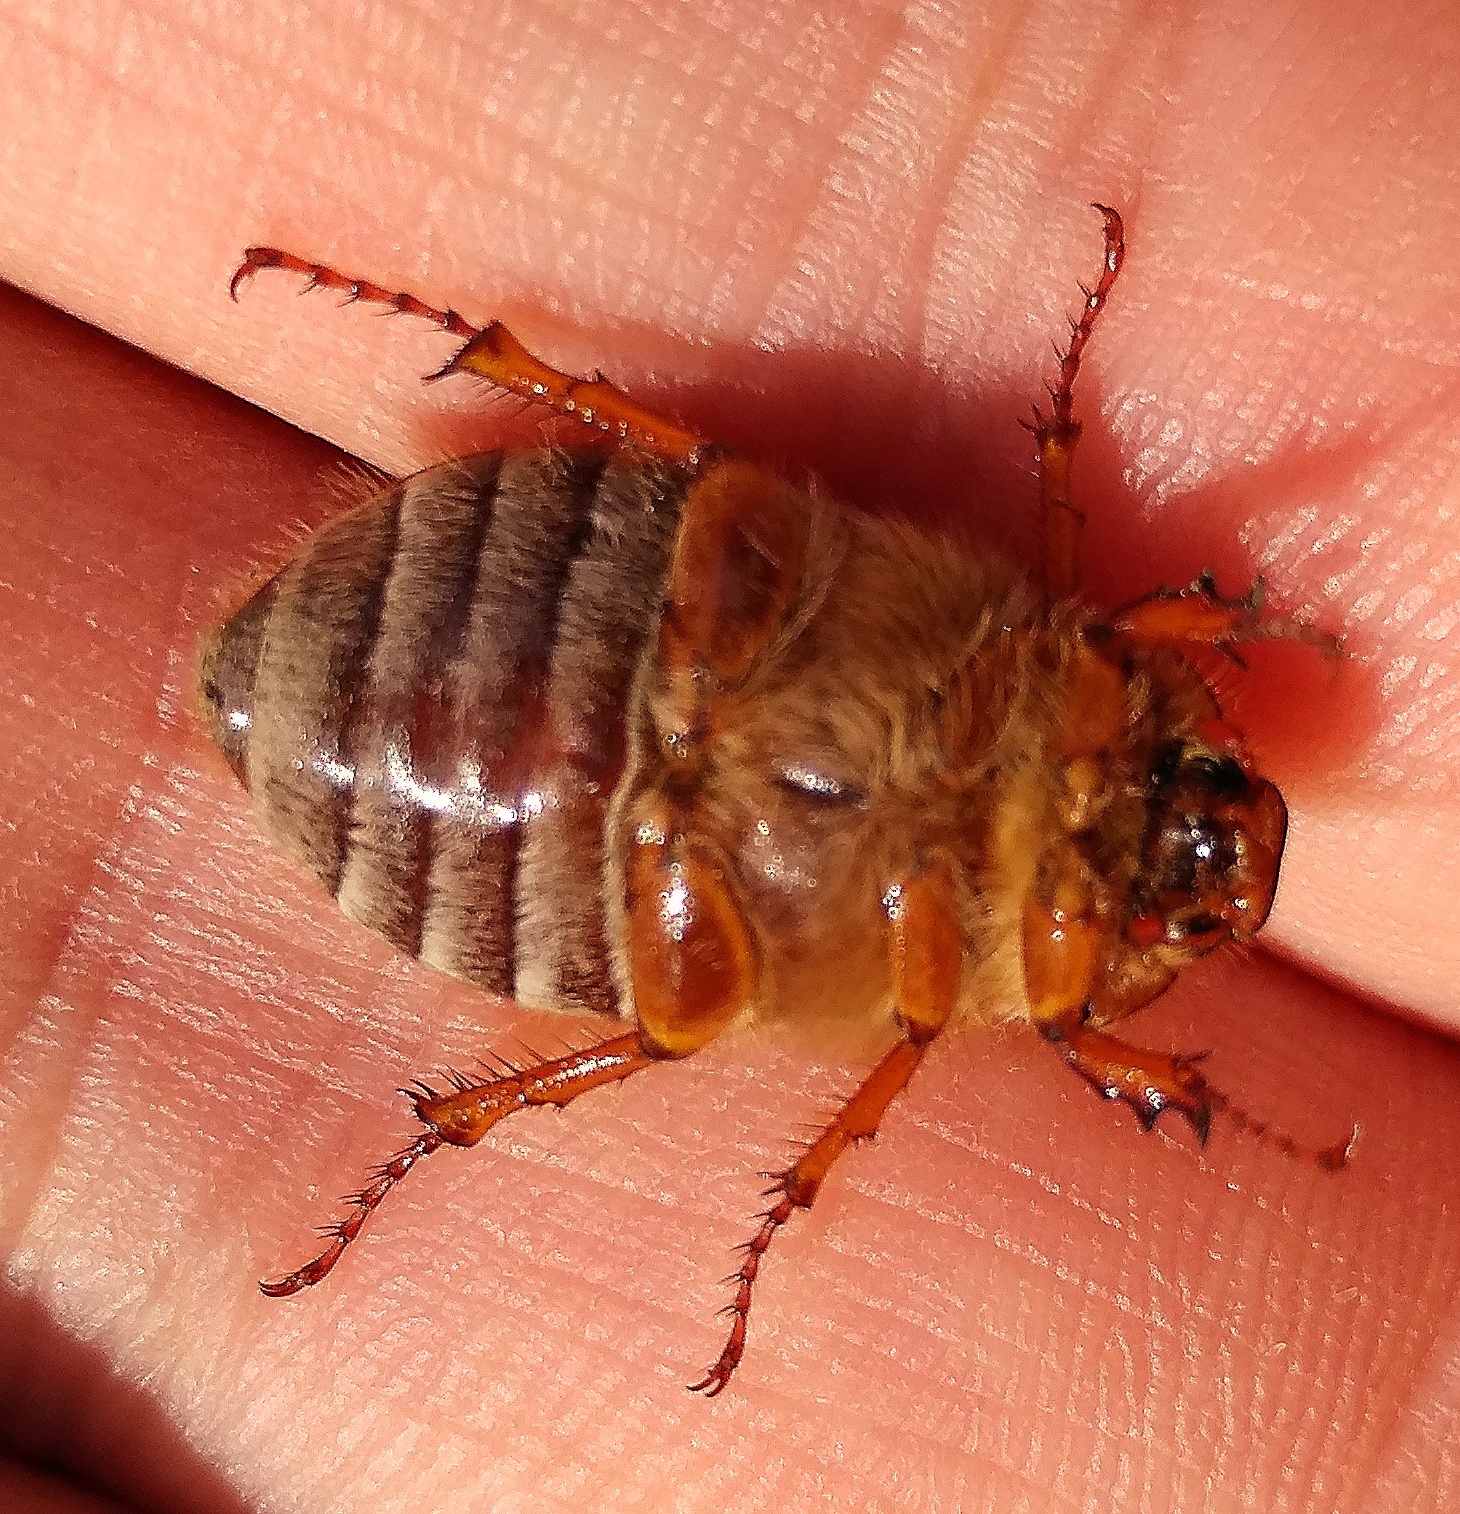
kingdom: Animalia
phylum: Arthropoda
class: Insecta
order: Coleoptera
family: Scarabaeidae
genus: Amphimallon
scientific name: Amphimallon solstitiale
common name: Summer chafer
